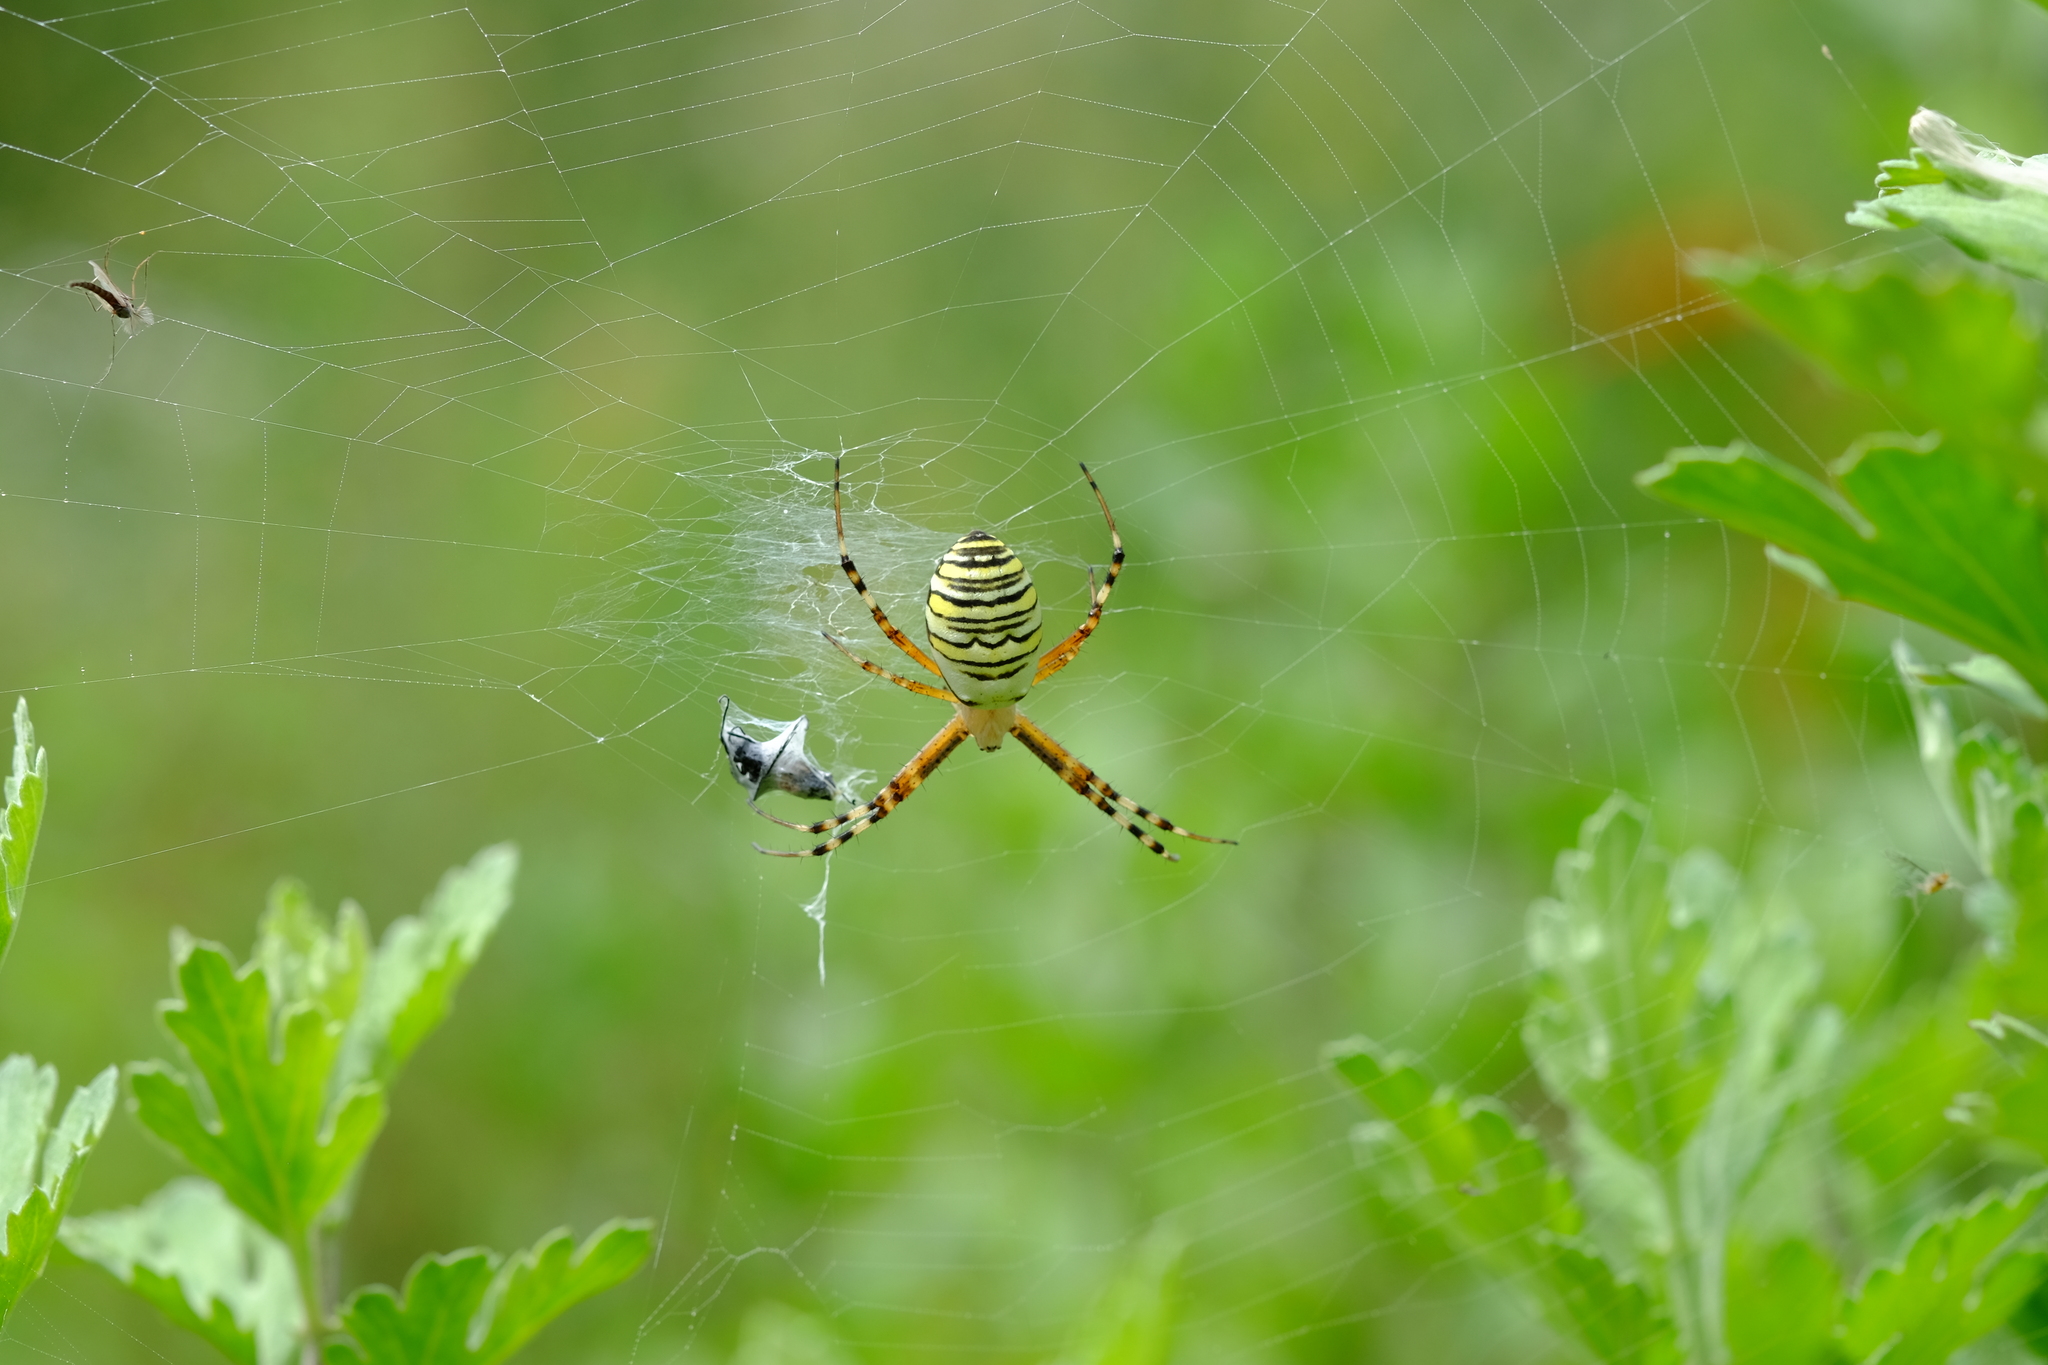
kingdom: Animalia
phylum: Arthropoda
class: Arachnida
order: Araneae
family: Araneidae
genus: Argiope
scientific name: Argiope bruennichi
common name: Wasp spider
